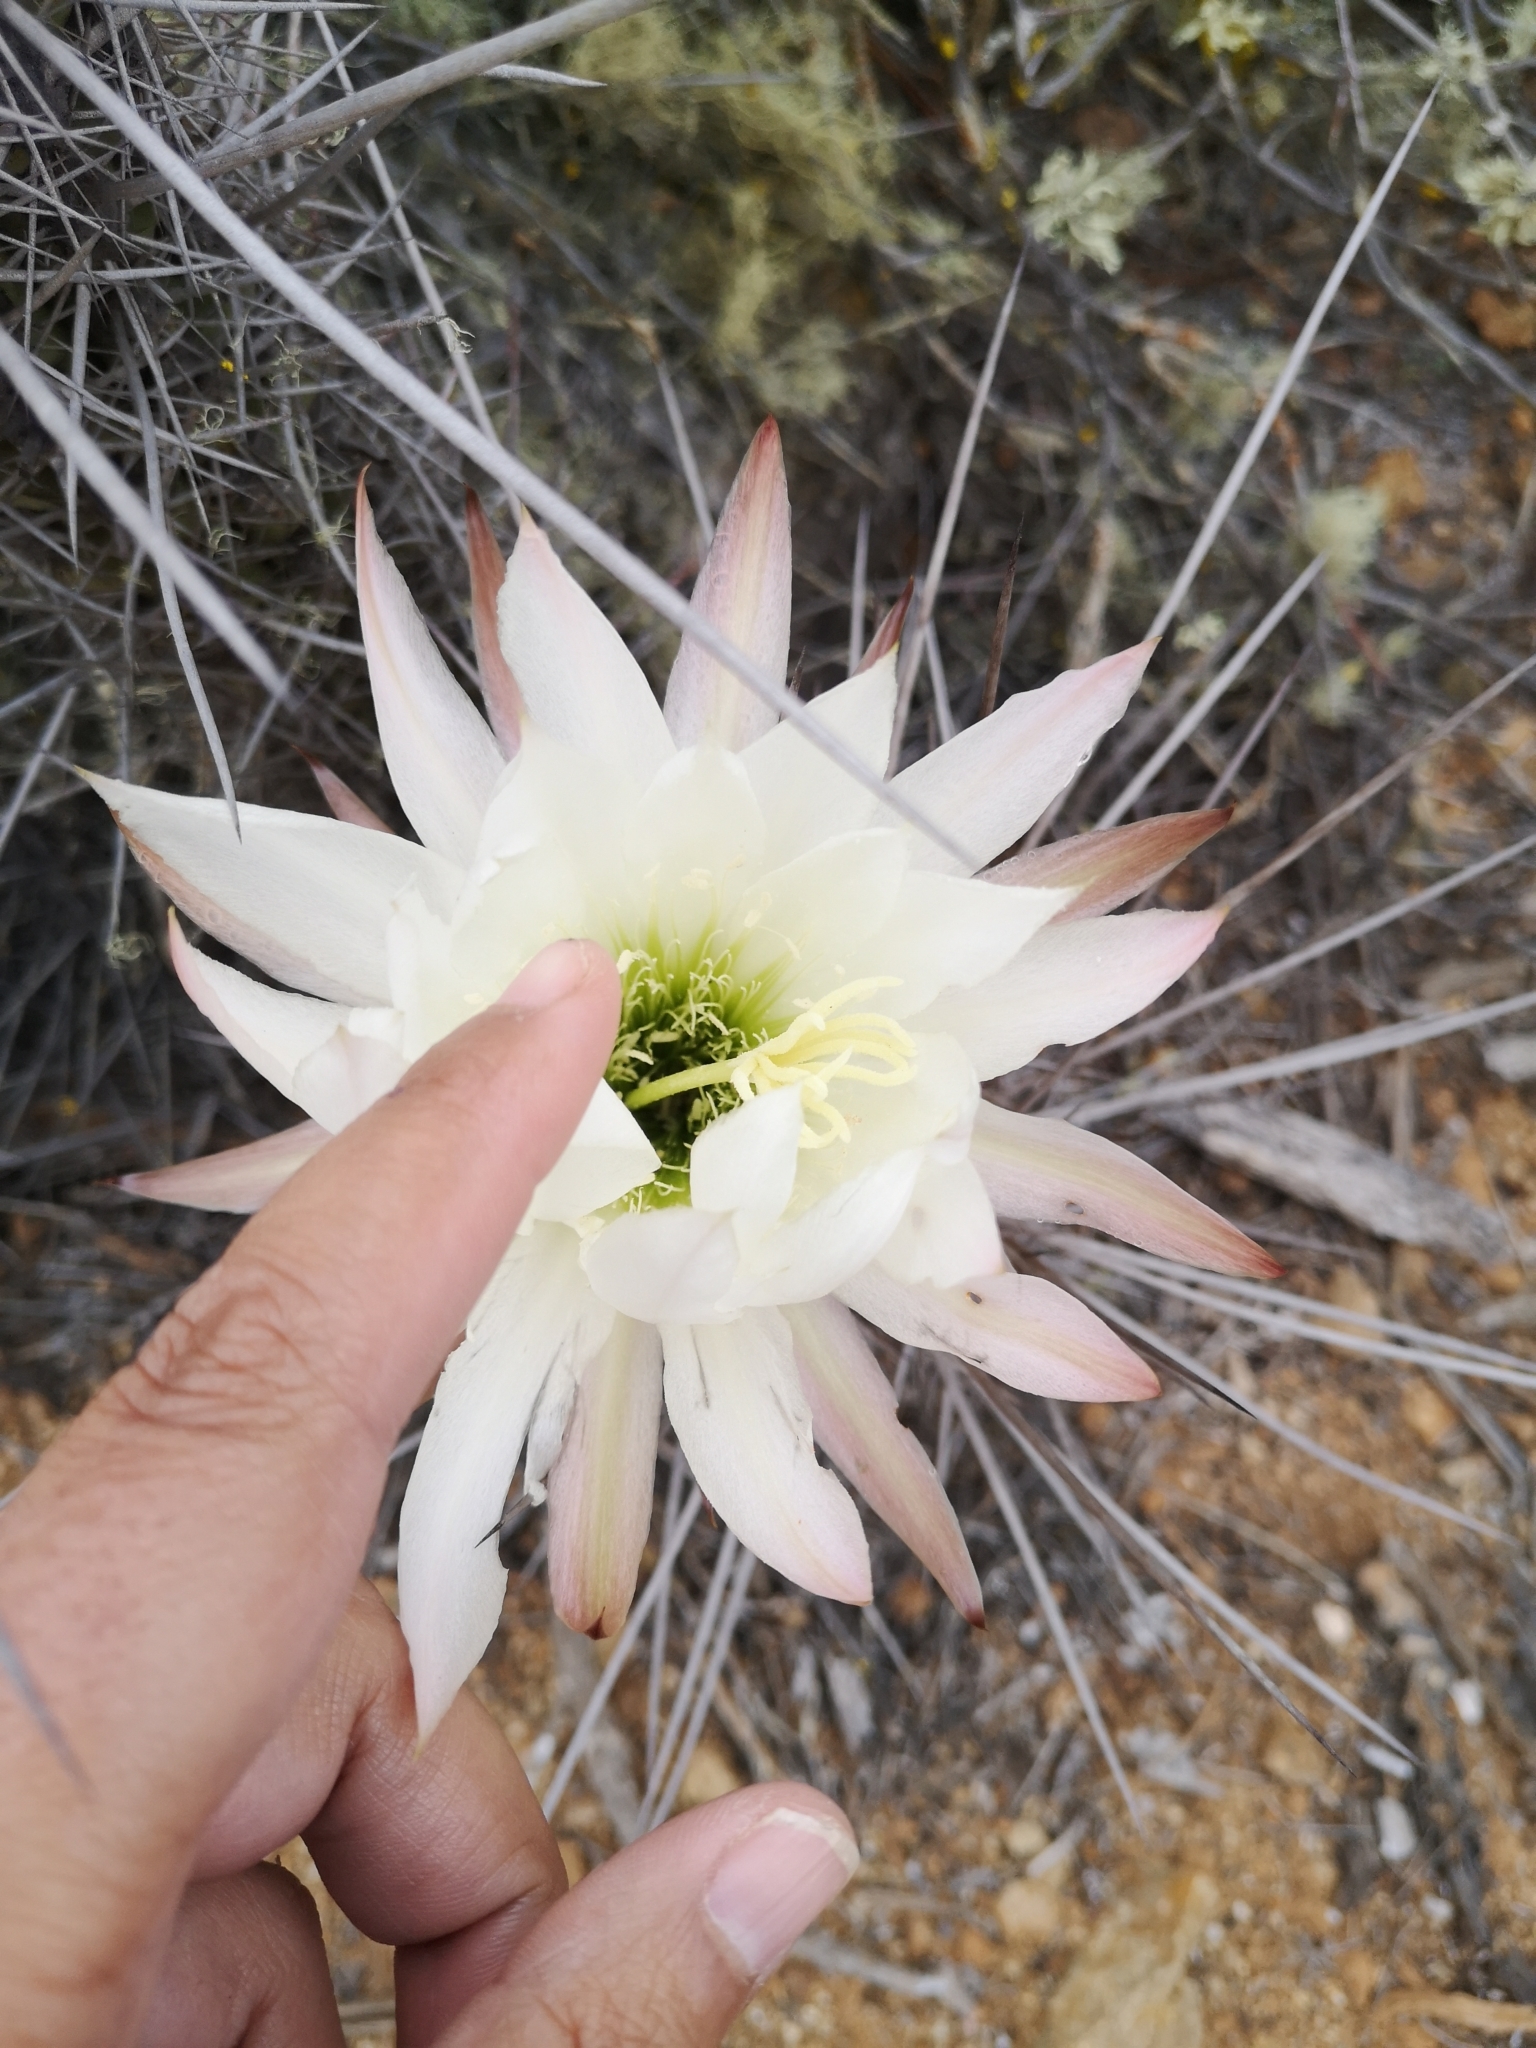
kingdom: Plantae
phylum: Tracheophyta
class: Magnoliopsida
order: Caryophyllales
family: Cactaceae
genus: Leucostele
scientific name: Leucostele deserticola
